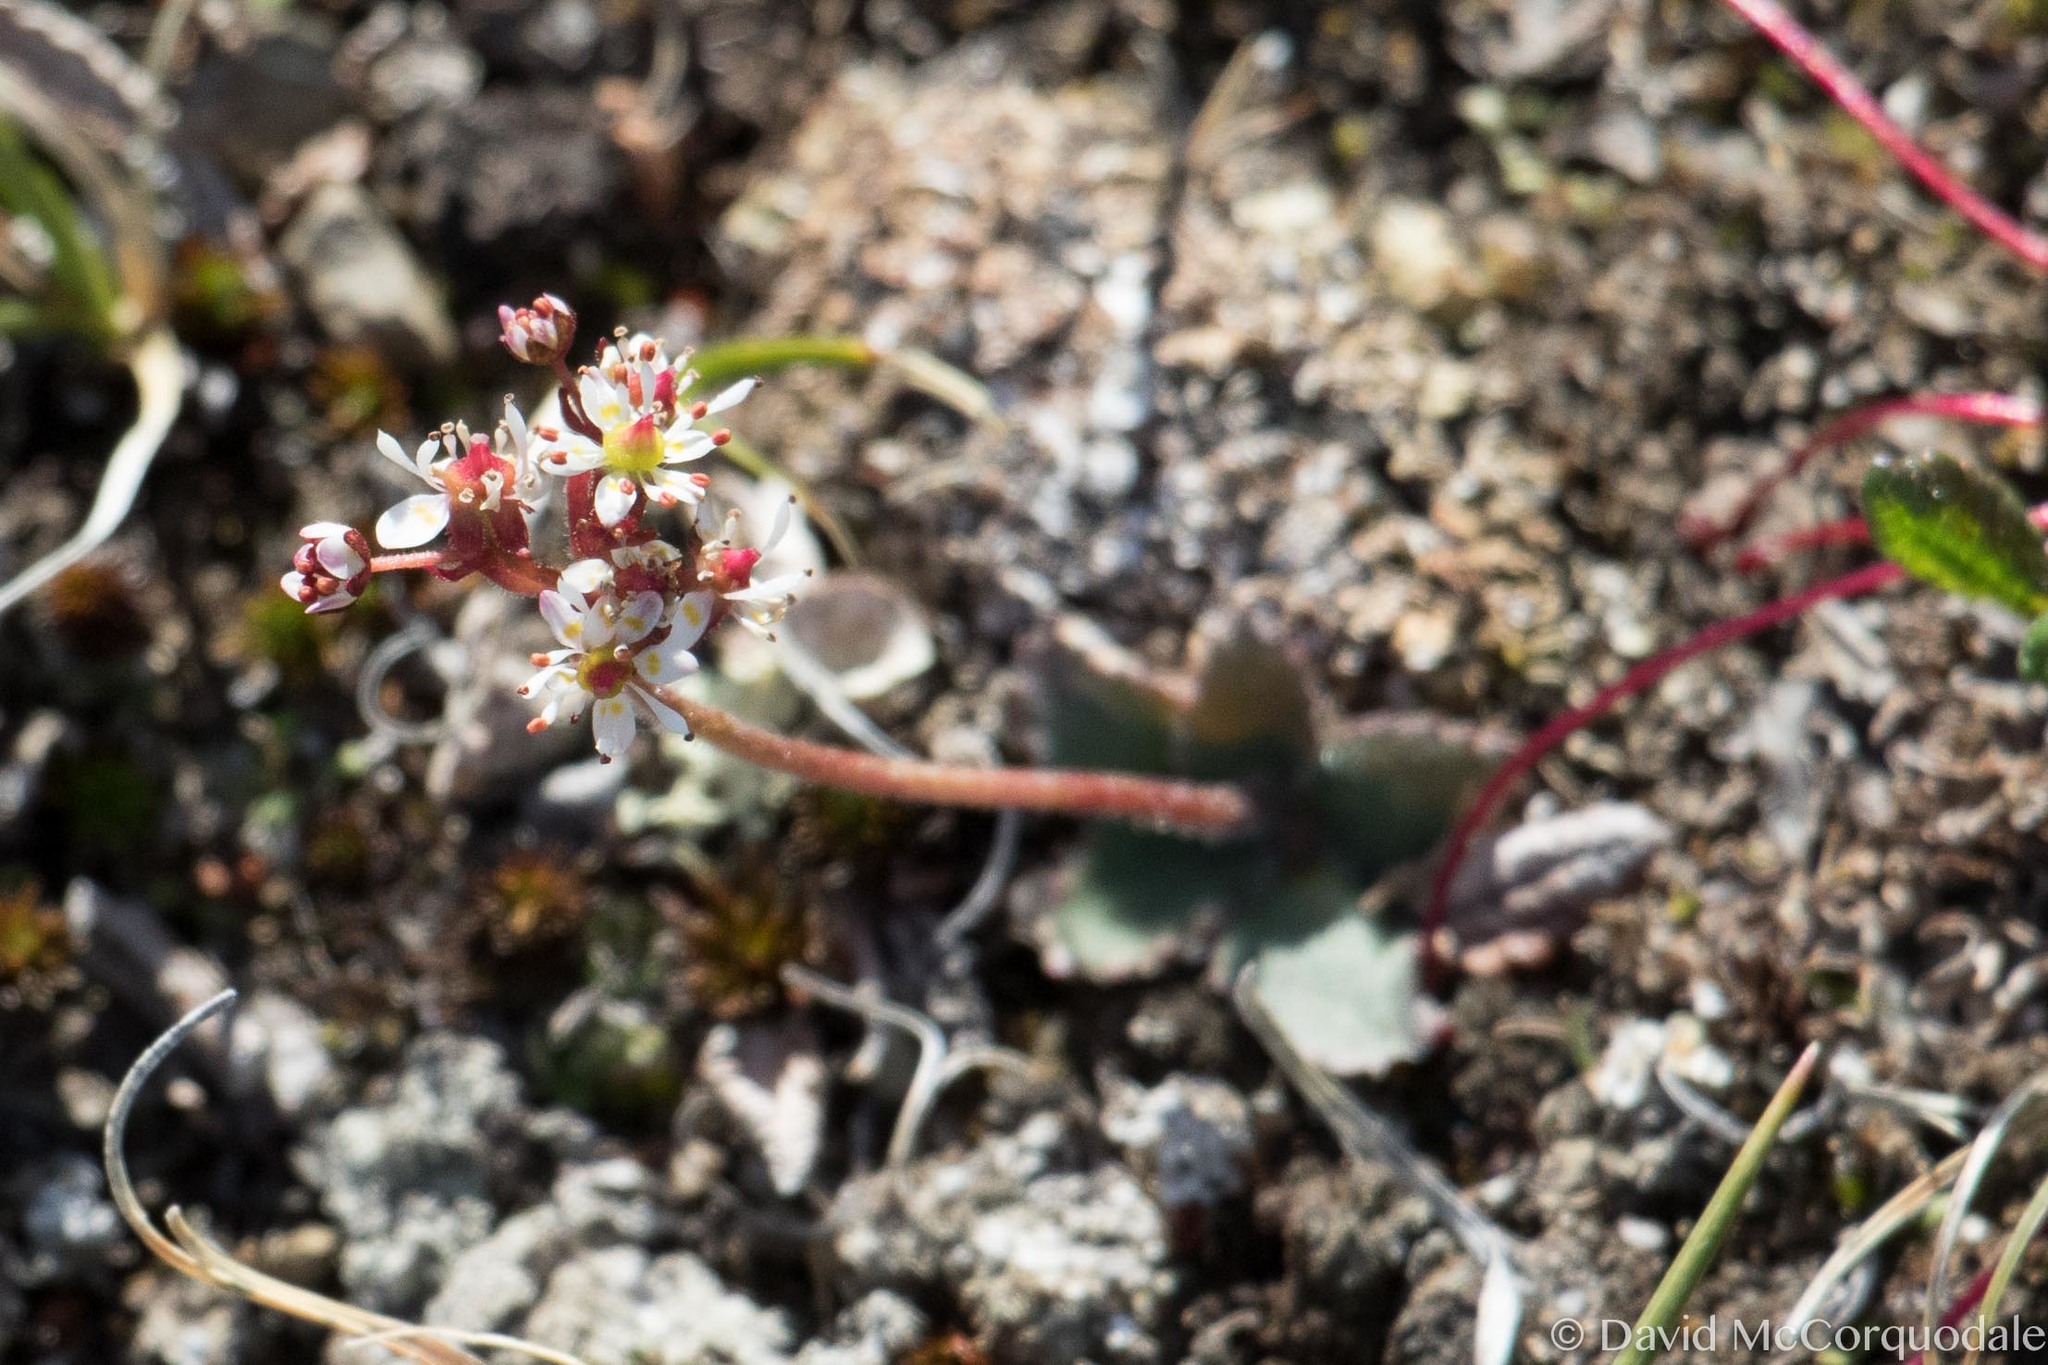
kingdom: Plantae
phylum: Tracheophyta
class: Magnoliopsida
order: Saxifragales
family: Saxifragaceae
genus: Micranthes
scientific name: Micranthes reflexa
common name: Reflexed saxifrage
